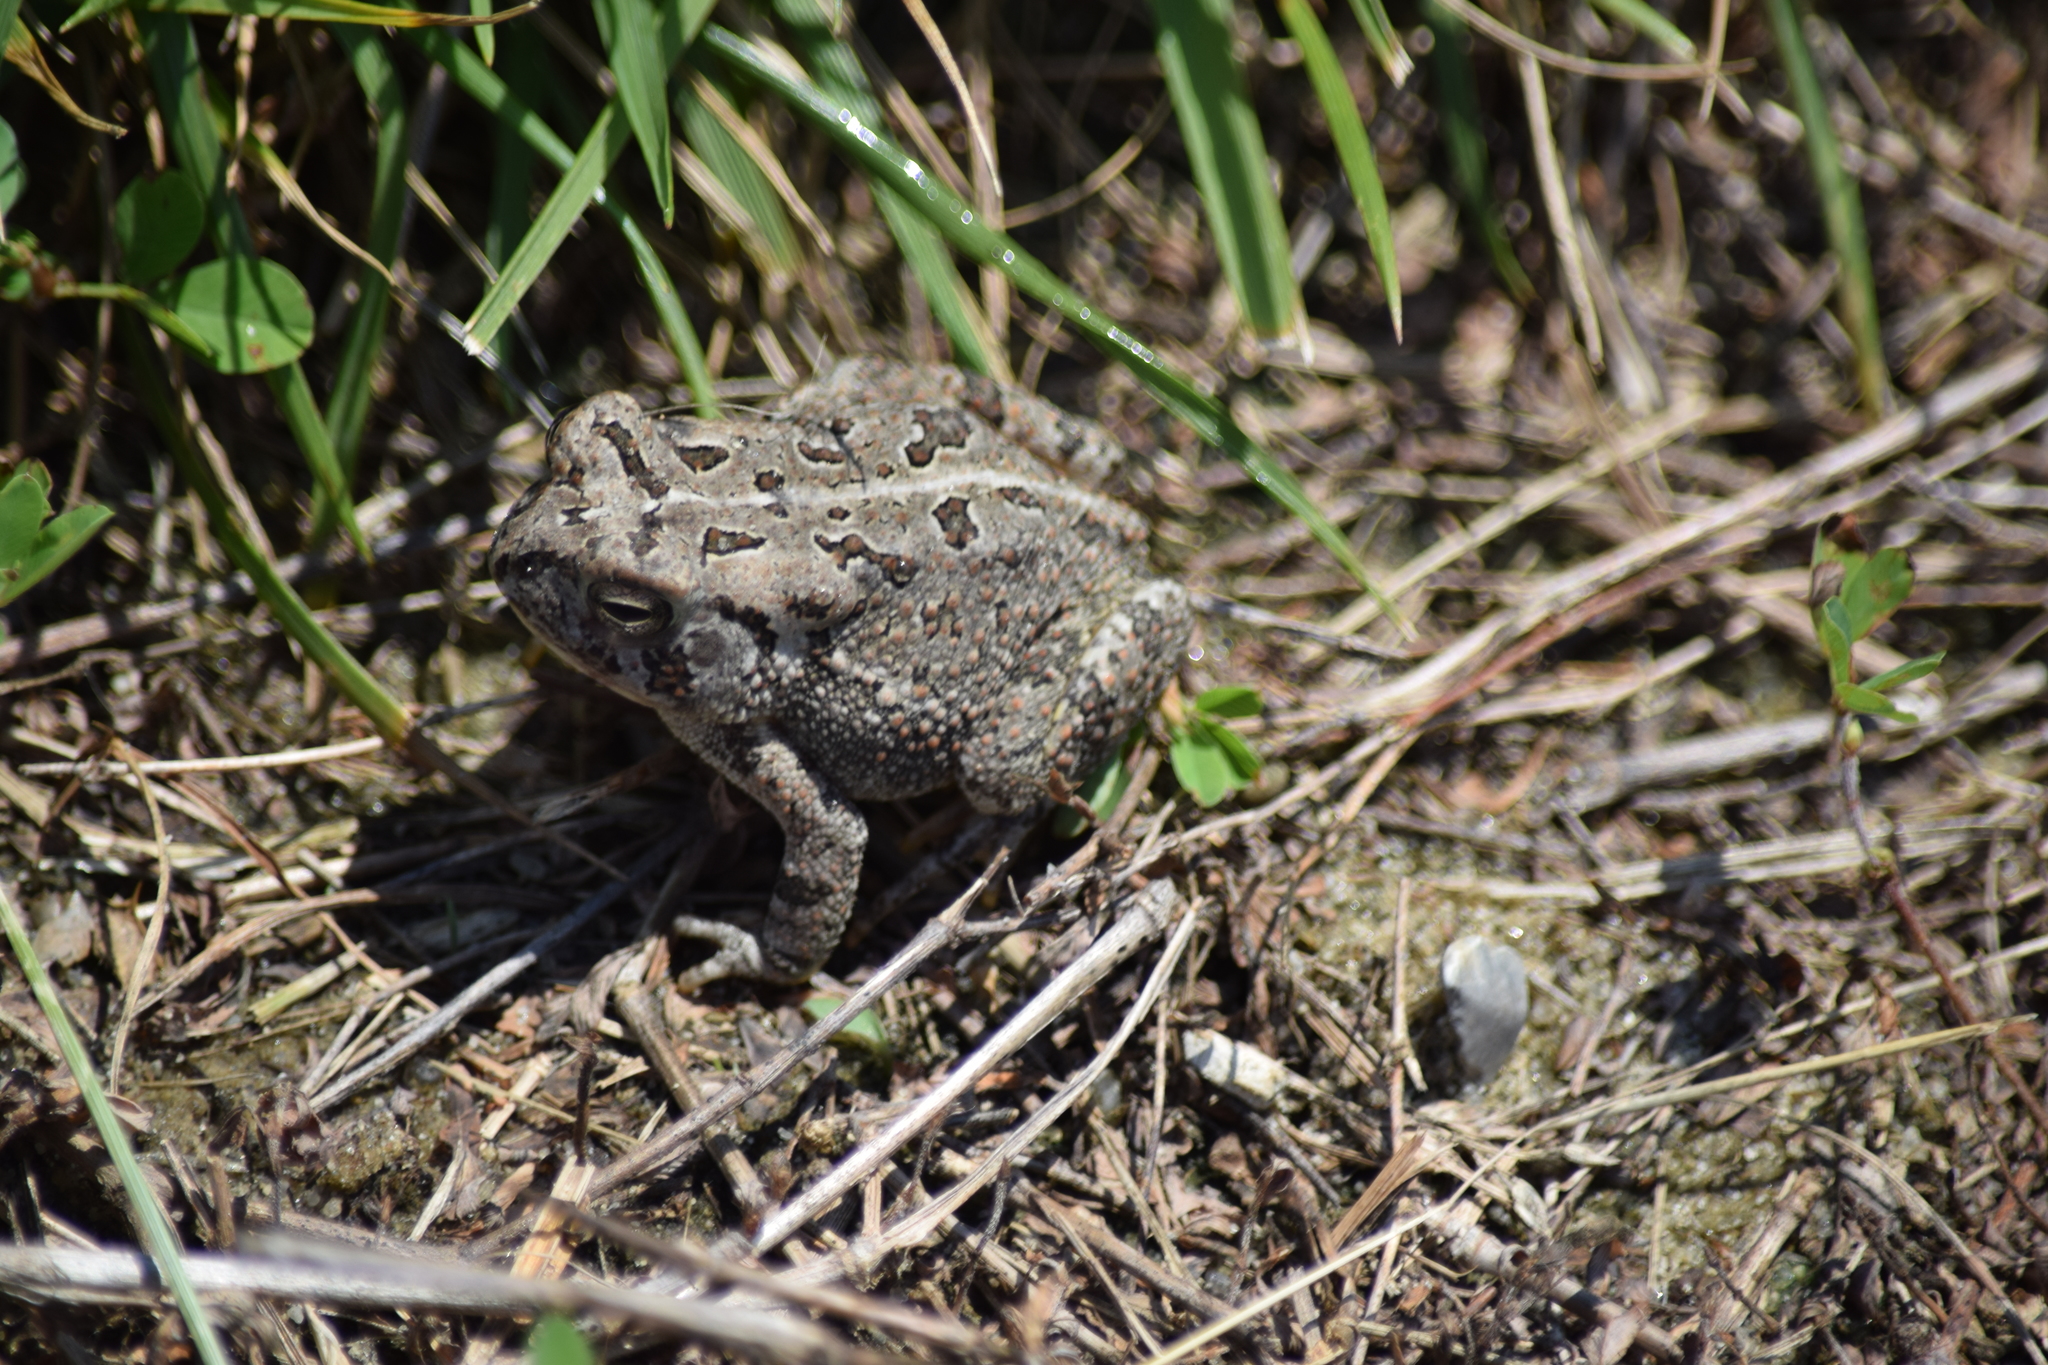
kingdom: Animalia
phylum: Chordata
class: Amphibia
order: Anura
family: Bufonidae
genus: Anaxyrus
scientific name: Anaxyrus fowleri
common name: Fowler's toad
